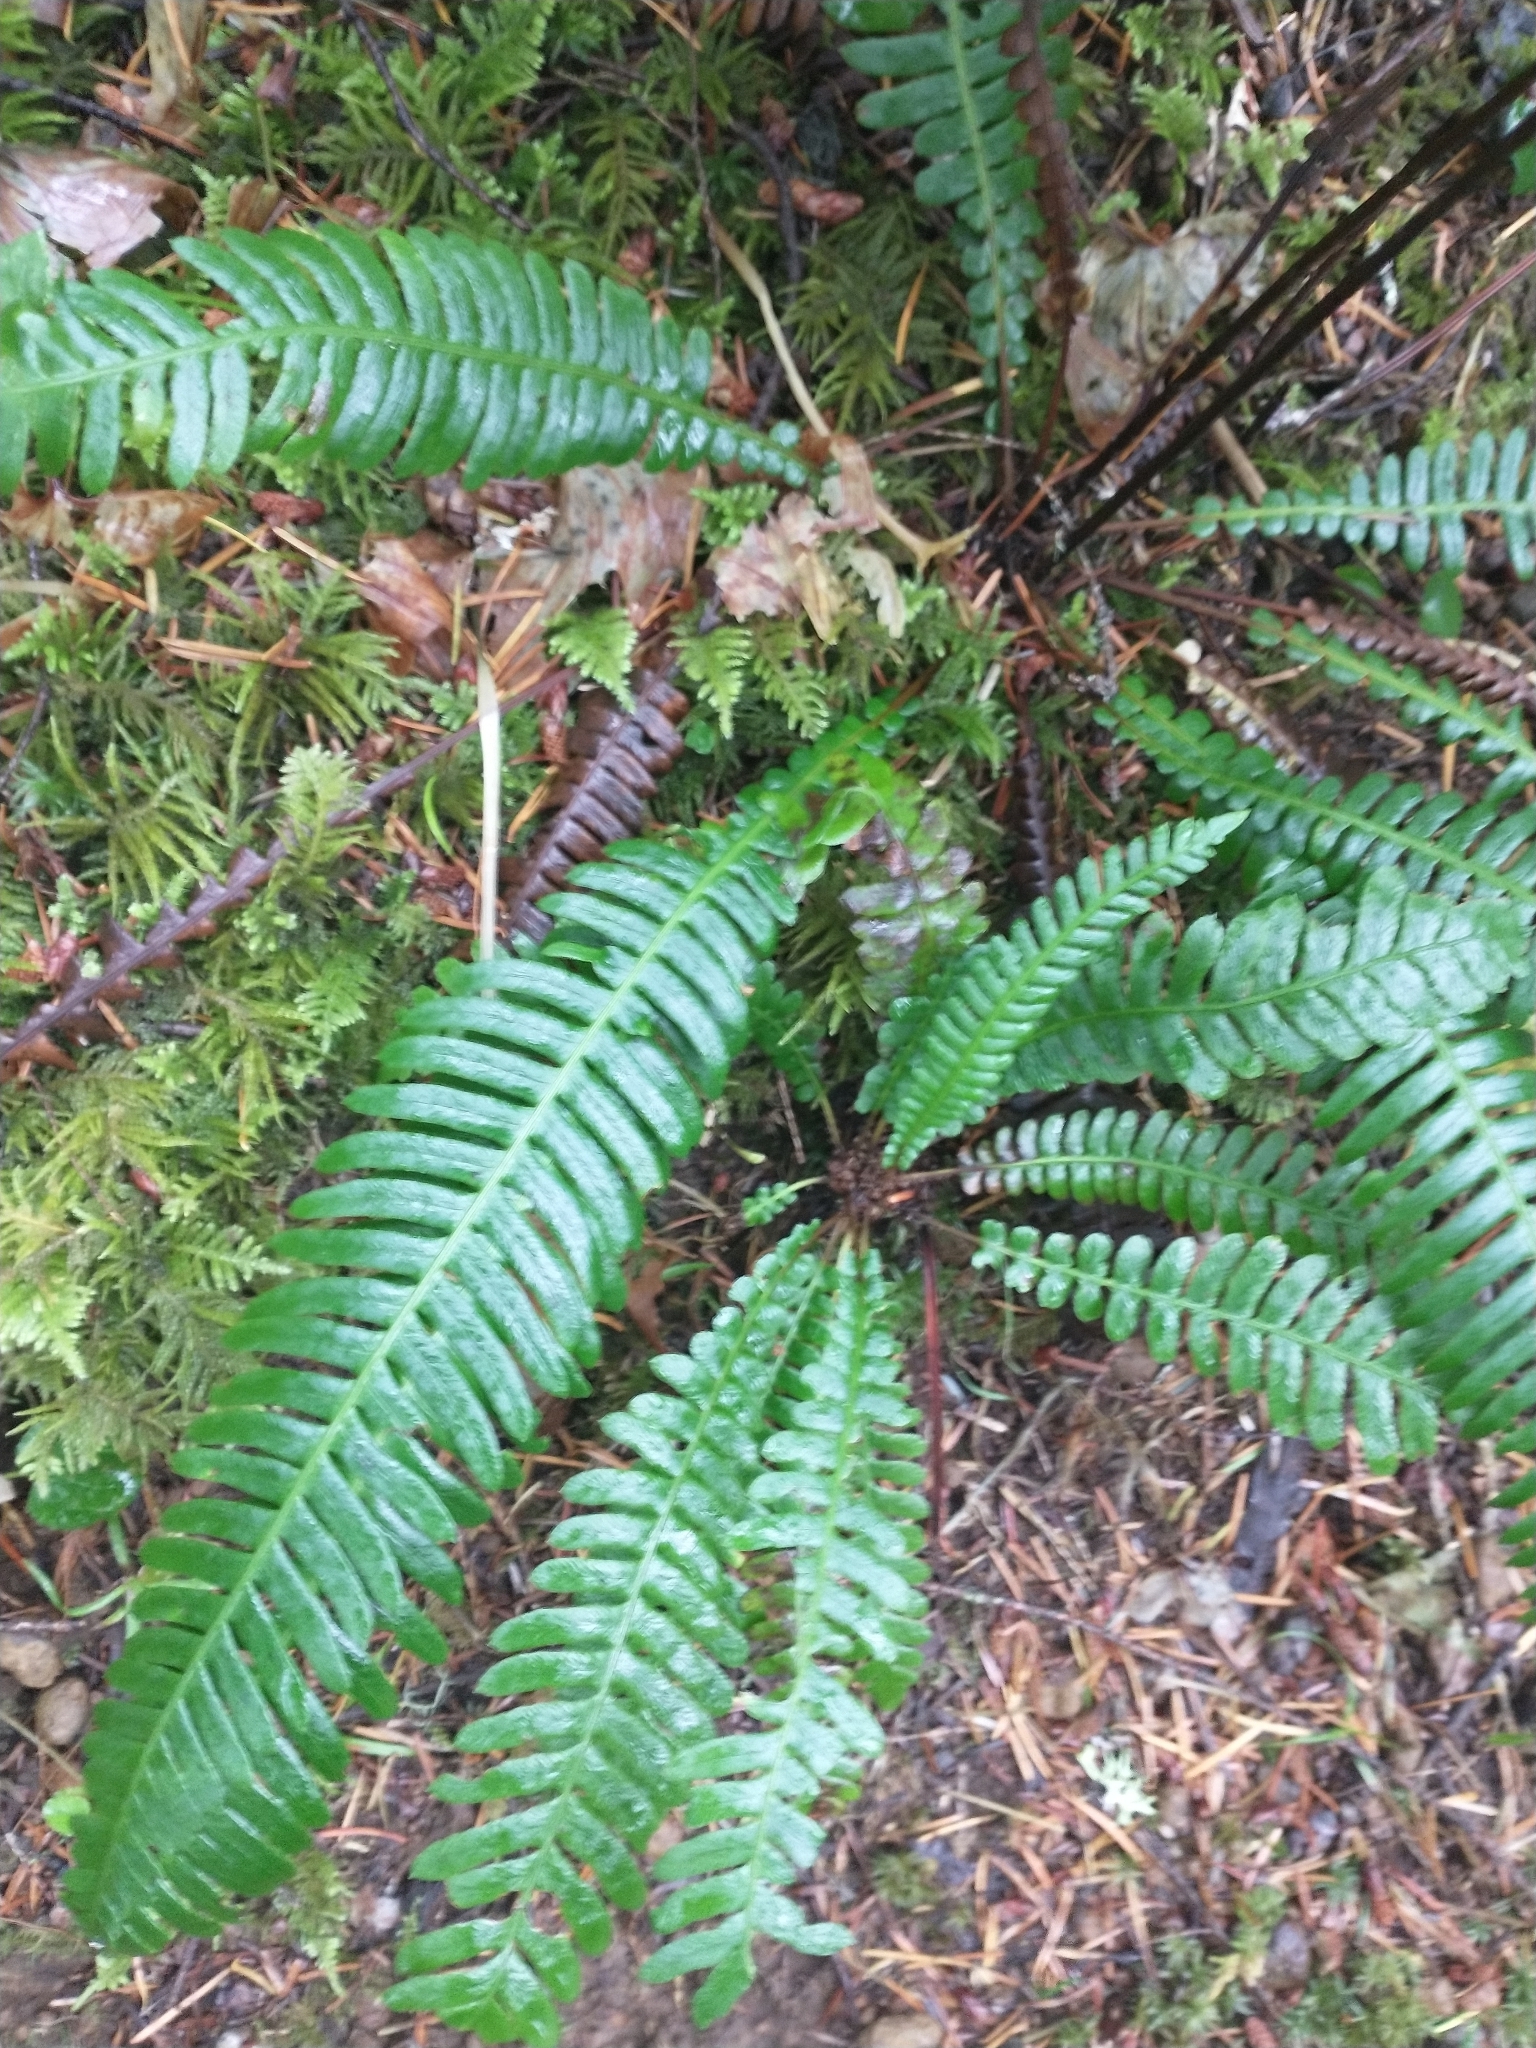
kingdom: Plantae
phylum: Tracheophyta
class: Polypodiopsida
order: Polypodiales
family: Blechnaceae
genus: Struthiopteris
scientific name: Struthiopteris spicant
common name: Deer fern
